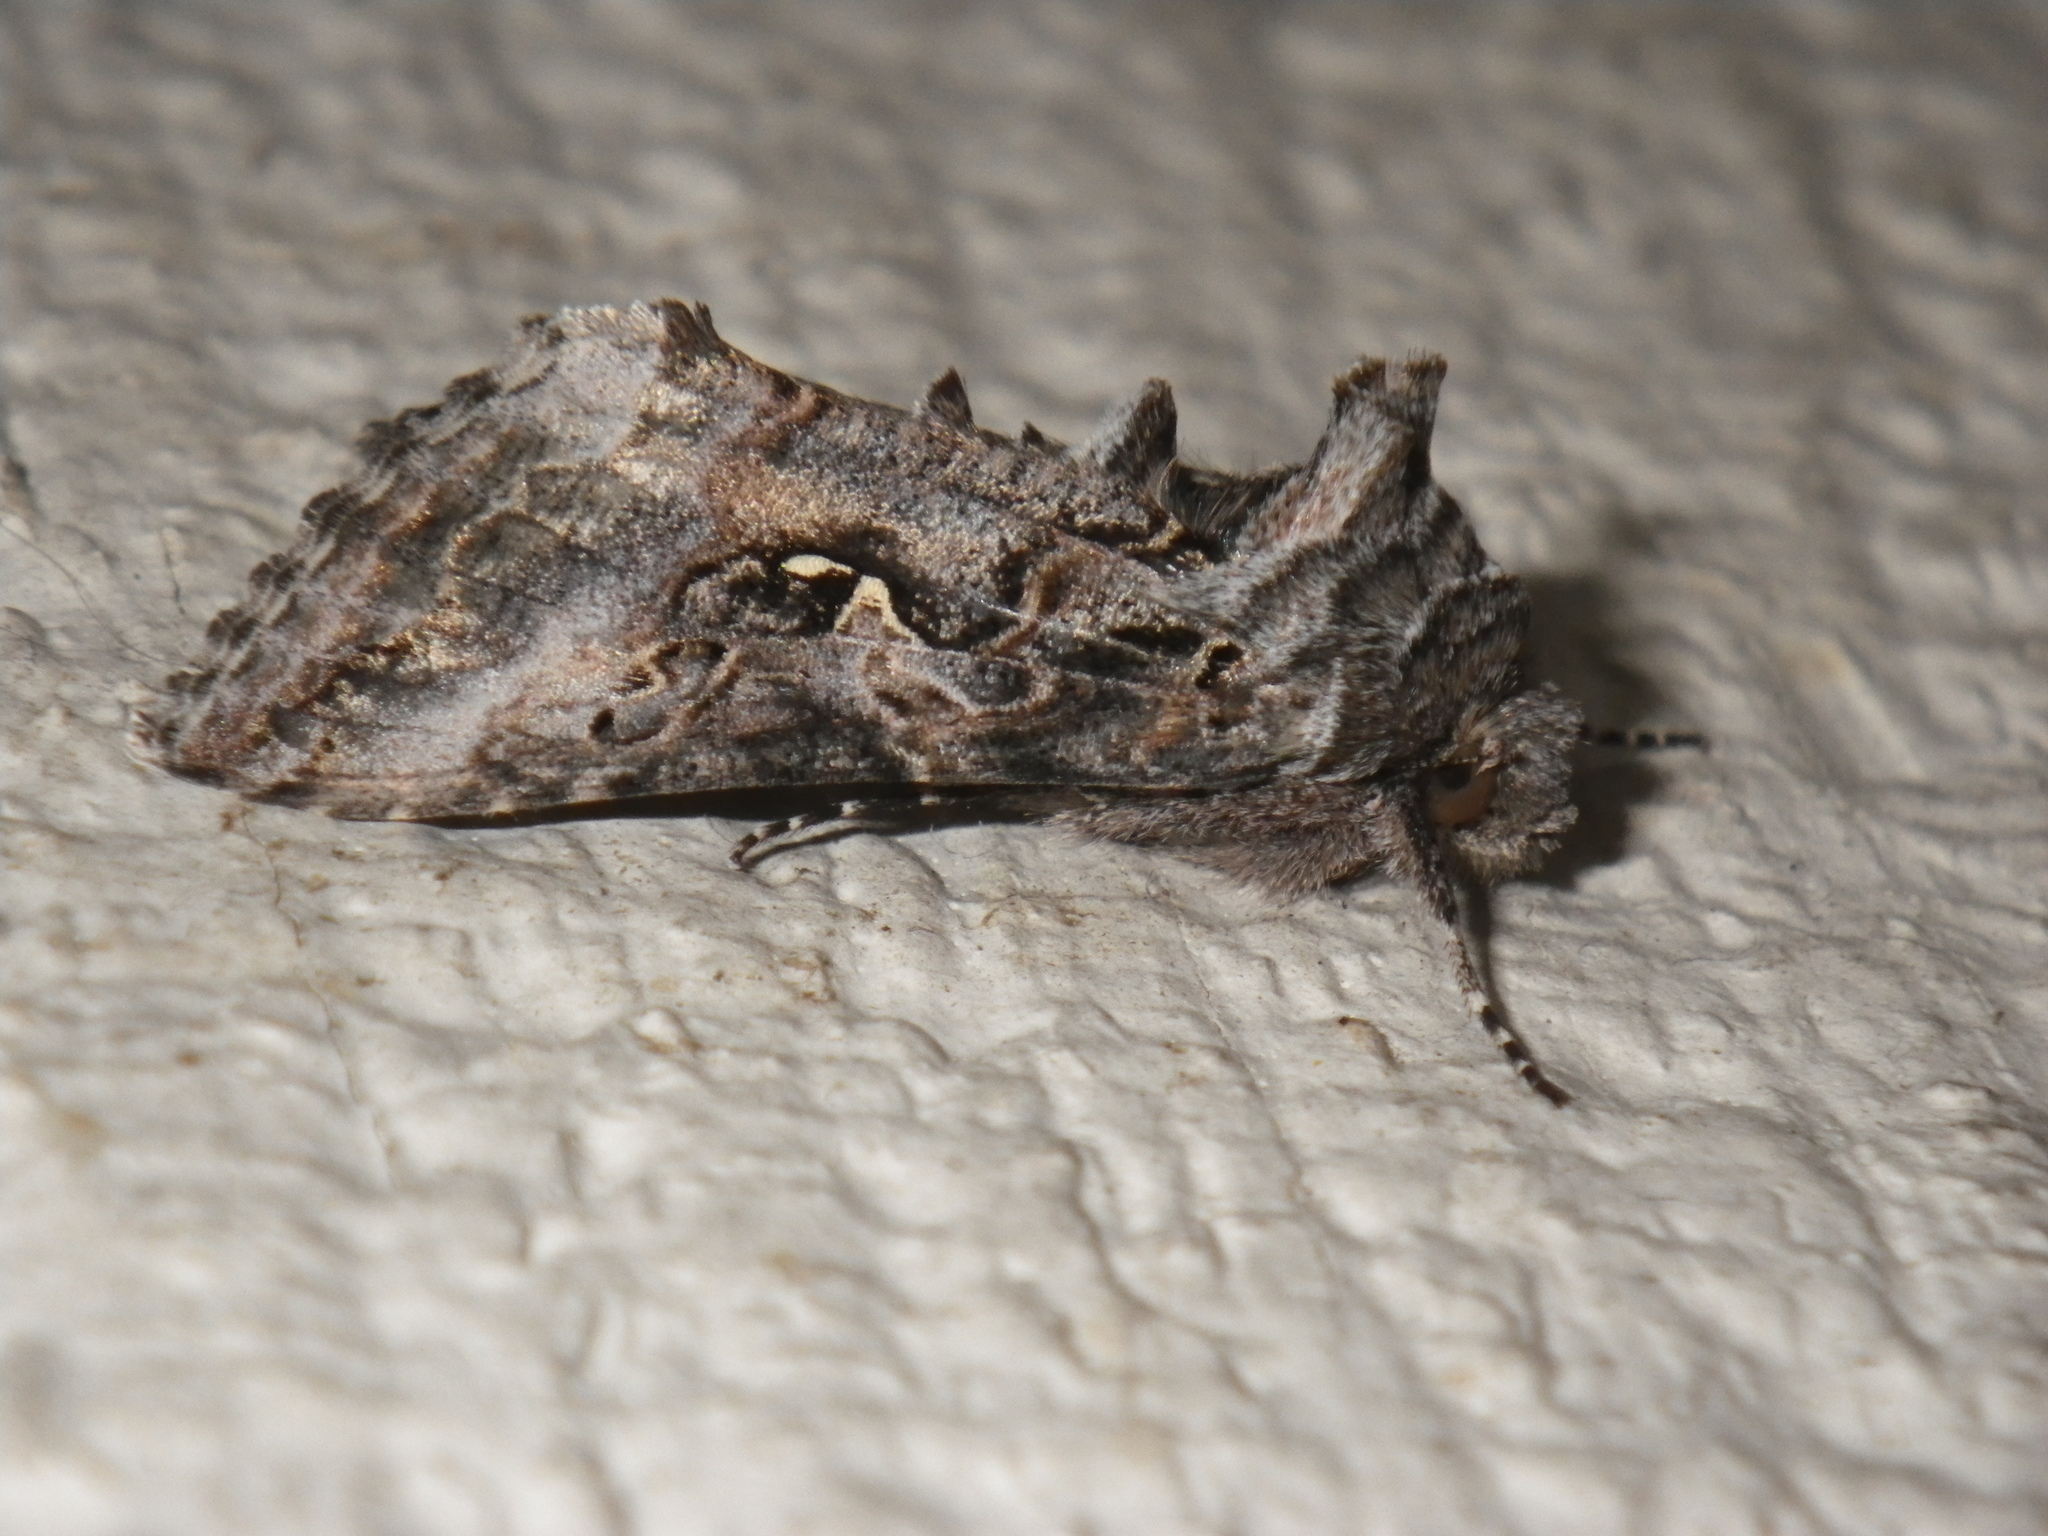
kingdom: Animalia
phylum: Arthropoda
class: Insecta
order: Lepidoptera
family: Noctuidae
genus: Autographa
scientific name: Autographa californica
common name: Alfalfa looper
